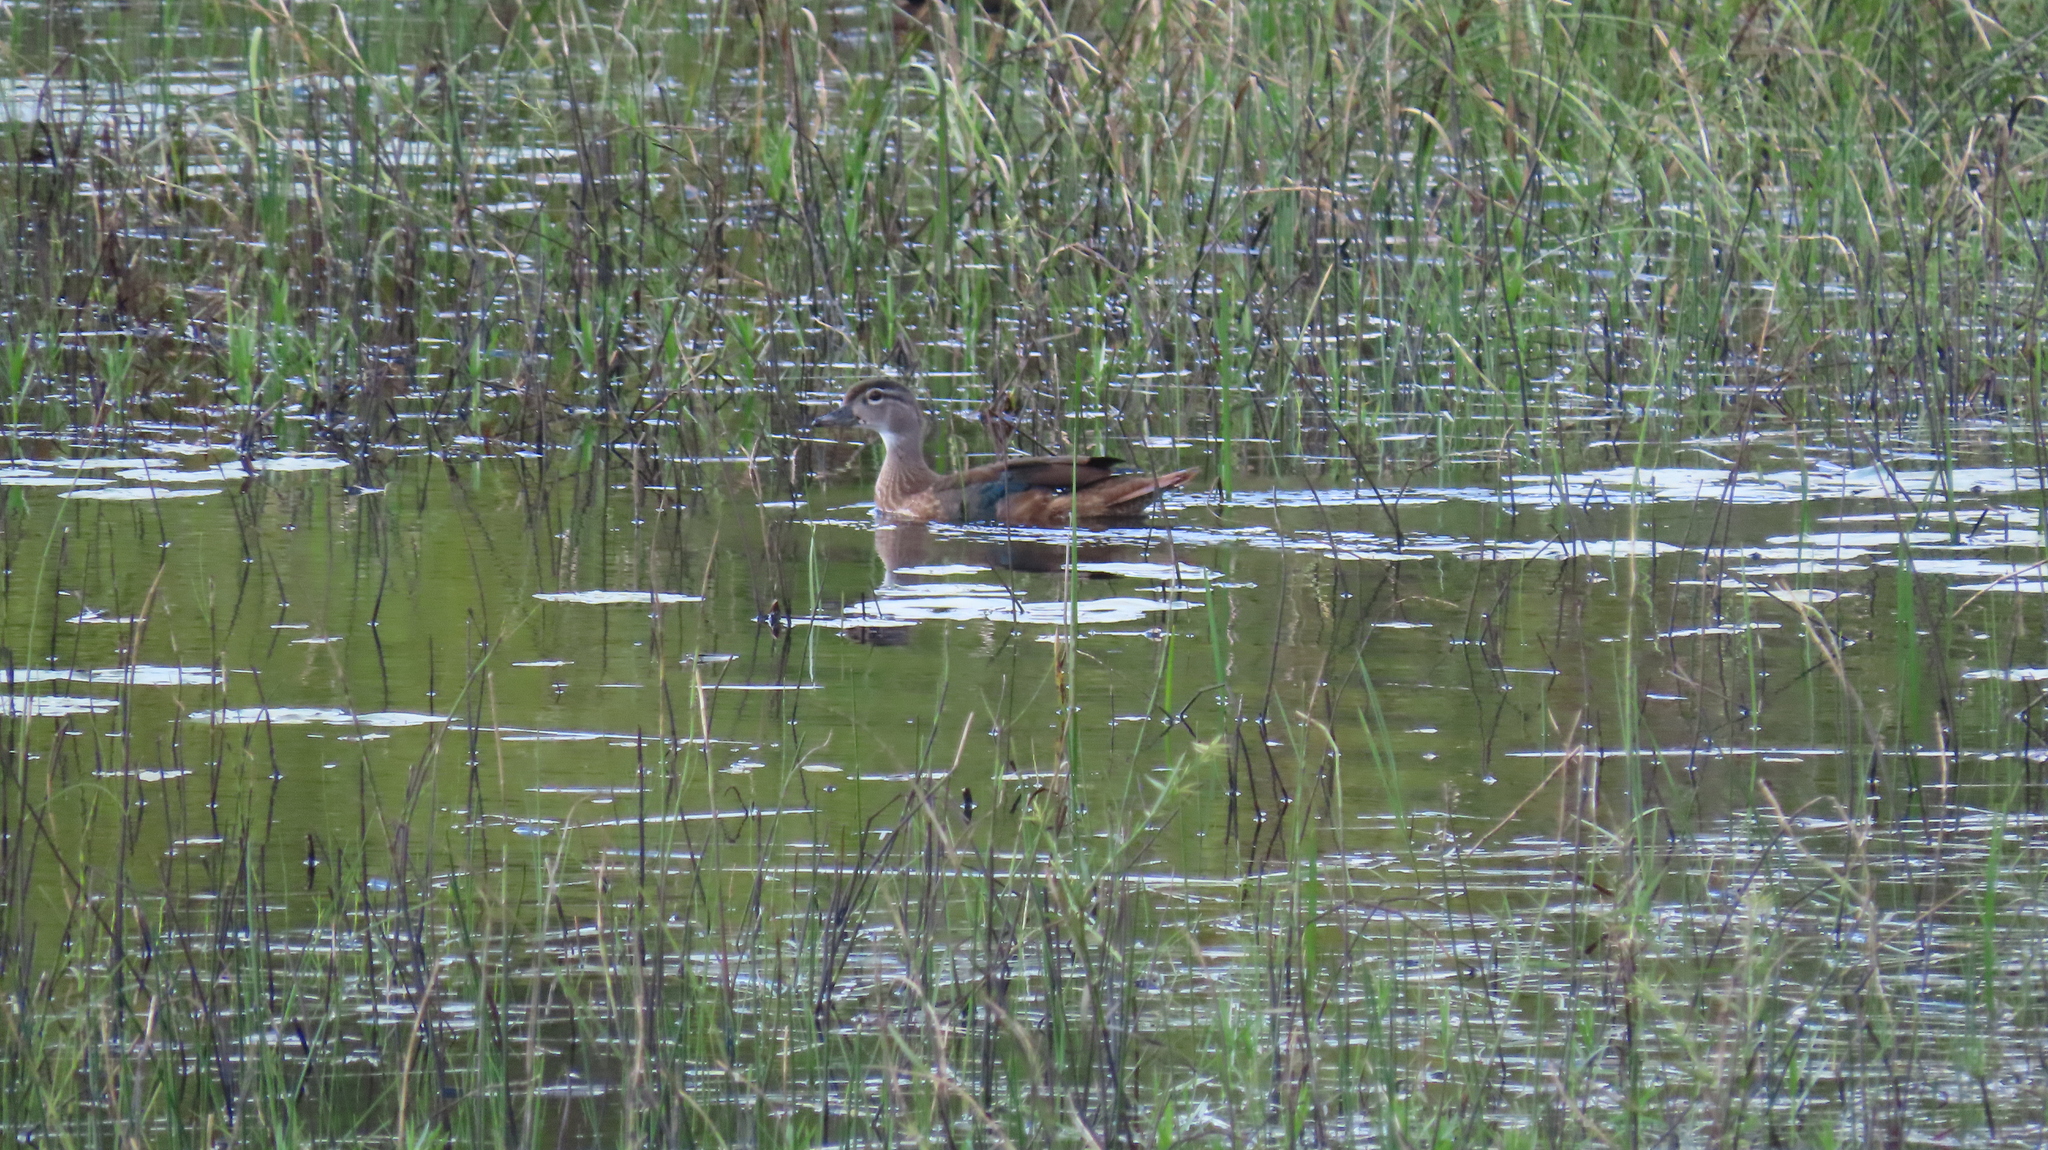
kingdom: Animalia
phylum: Chordata
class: Aves
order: Anseriformes
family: Anatidae
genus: Aix
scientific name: Aix sponsa
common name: Wood duck
